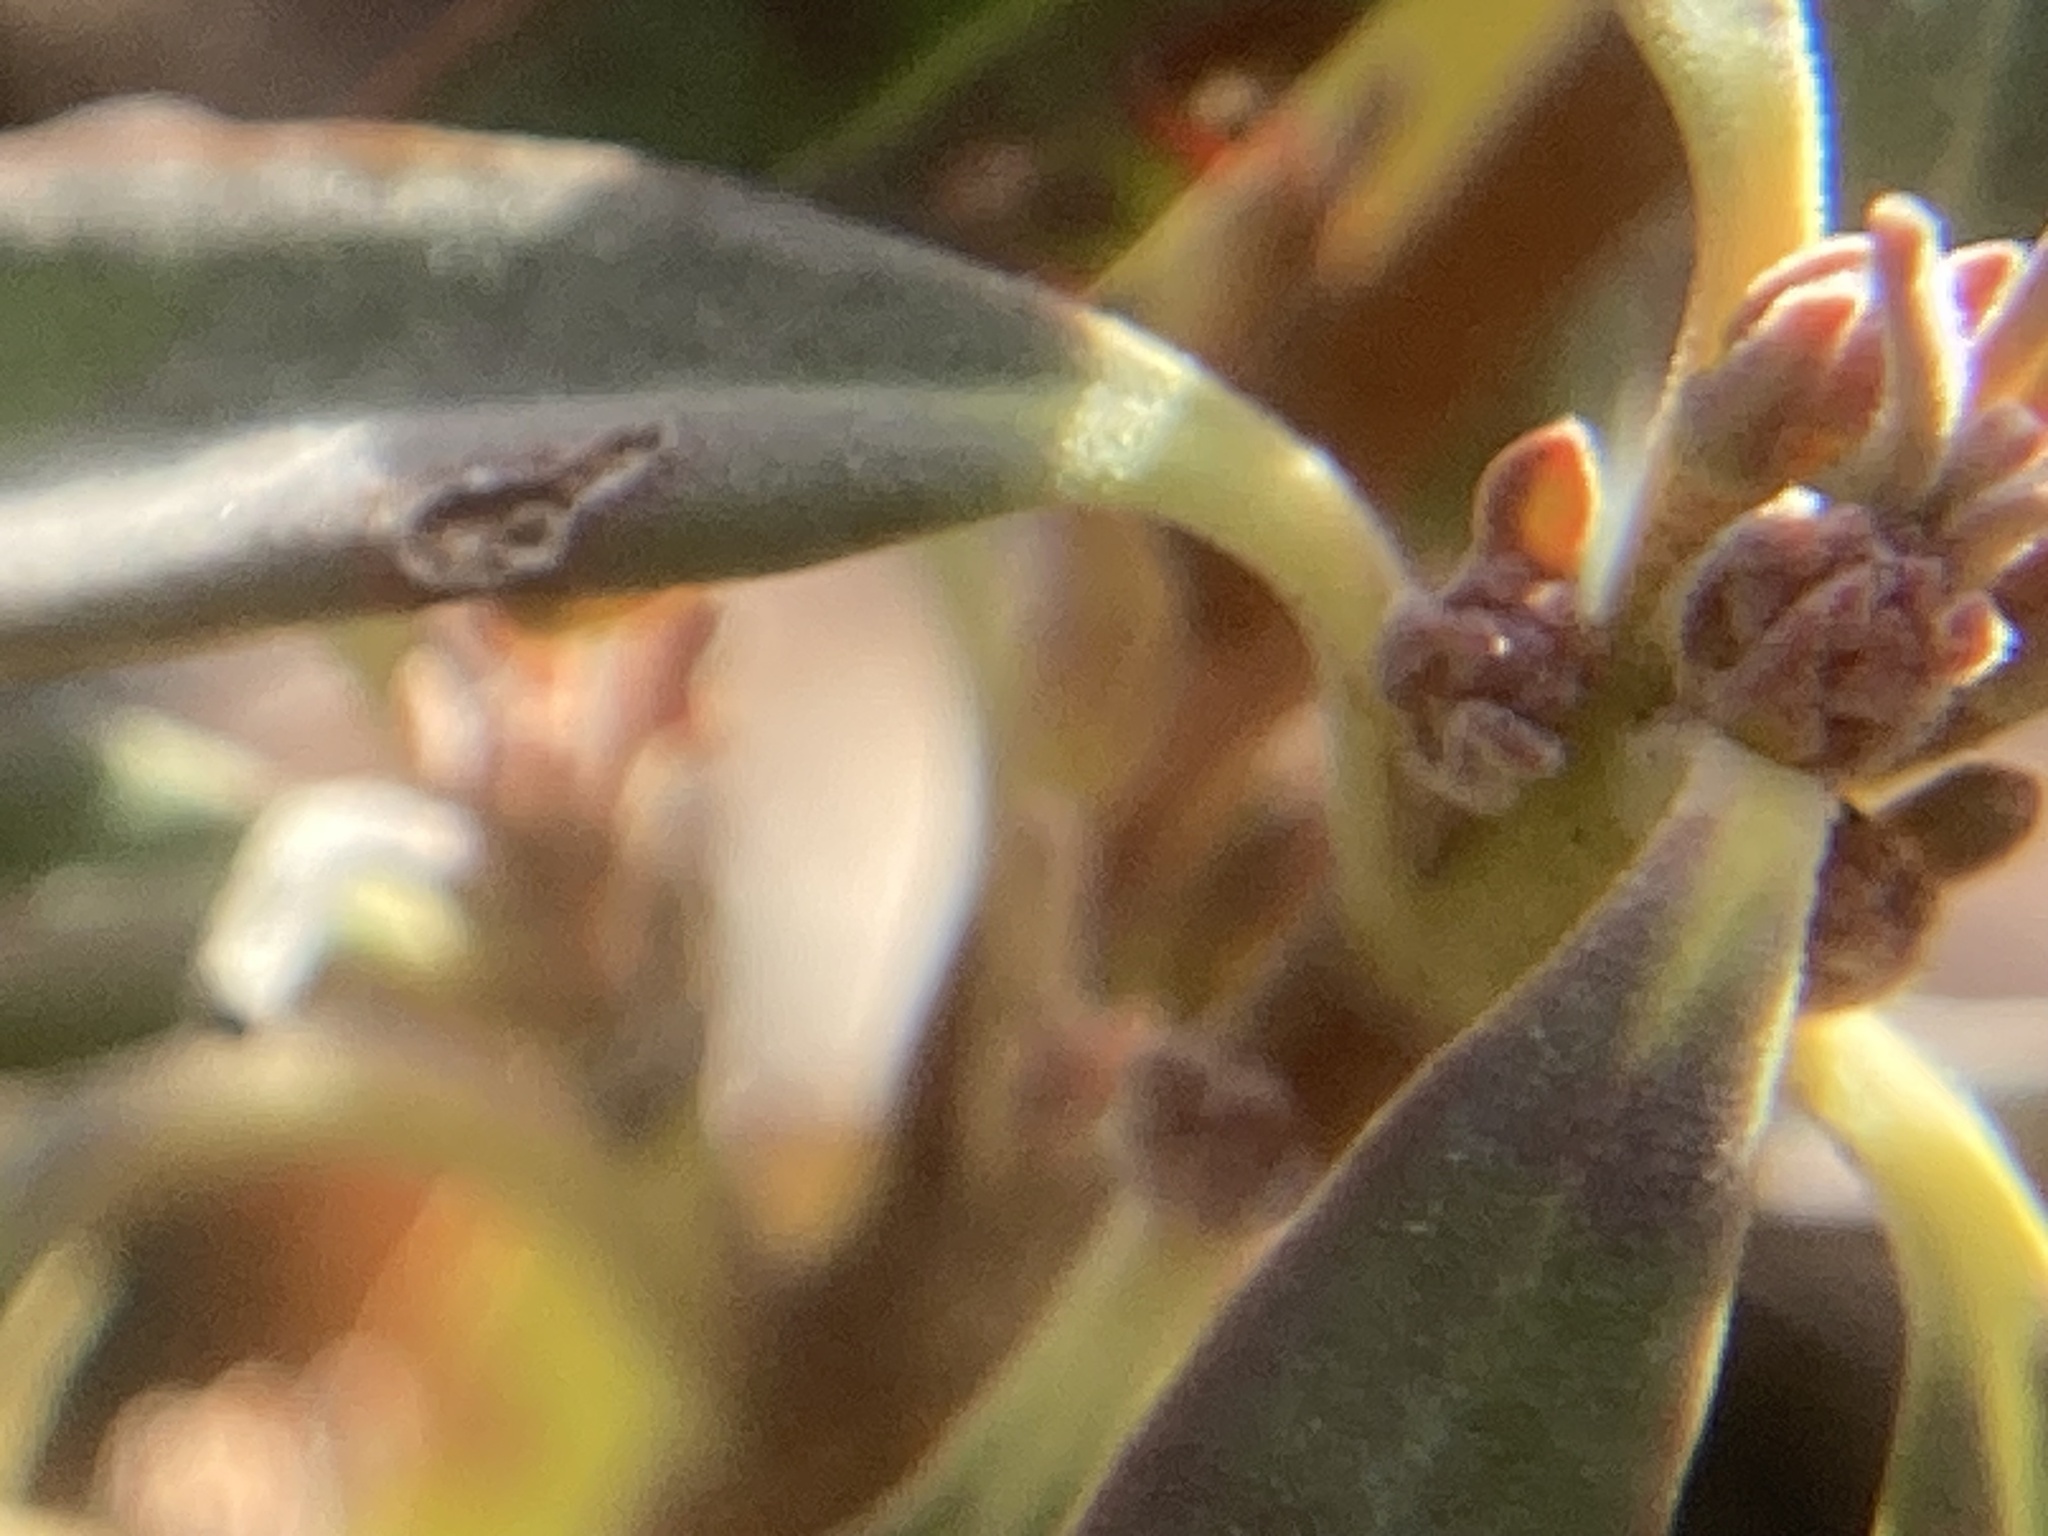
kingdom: Plantae
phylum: Tracheophyta
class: Magnoliopsida
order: Ericales
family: Ericaceae
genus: Kalmia
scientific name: Kalmia angustifolia
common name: Sheep-laurel
